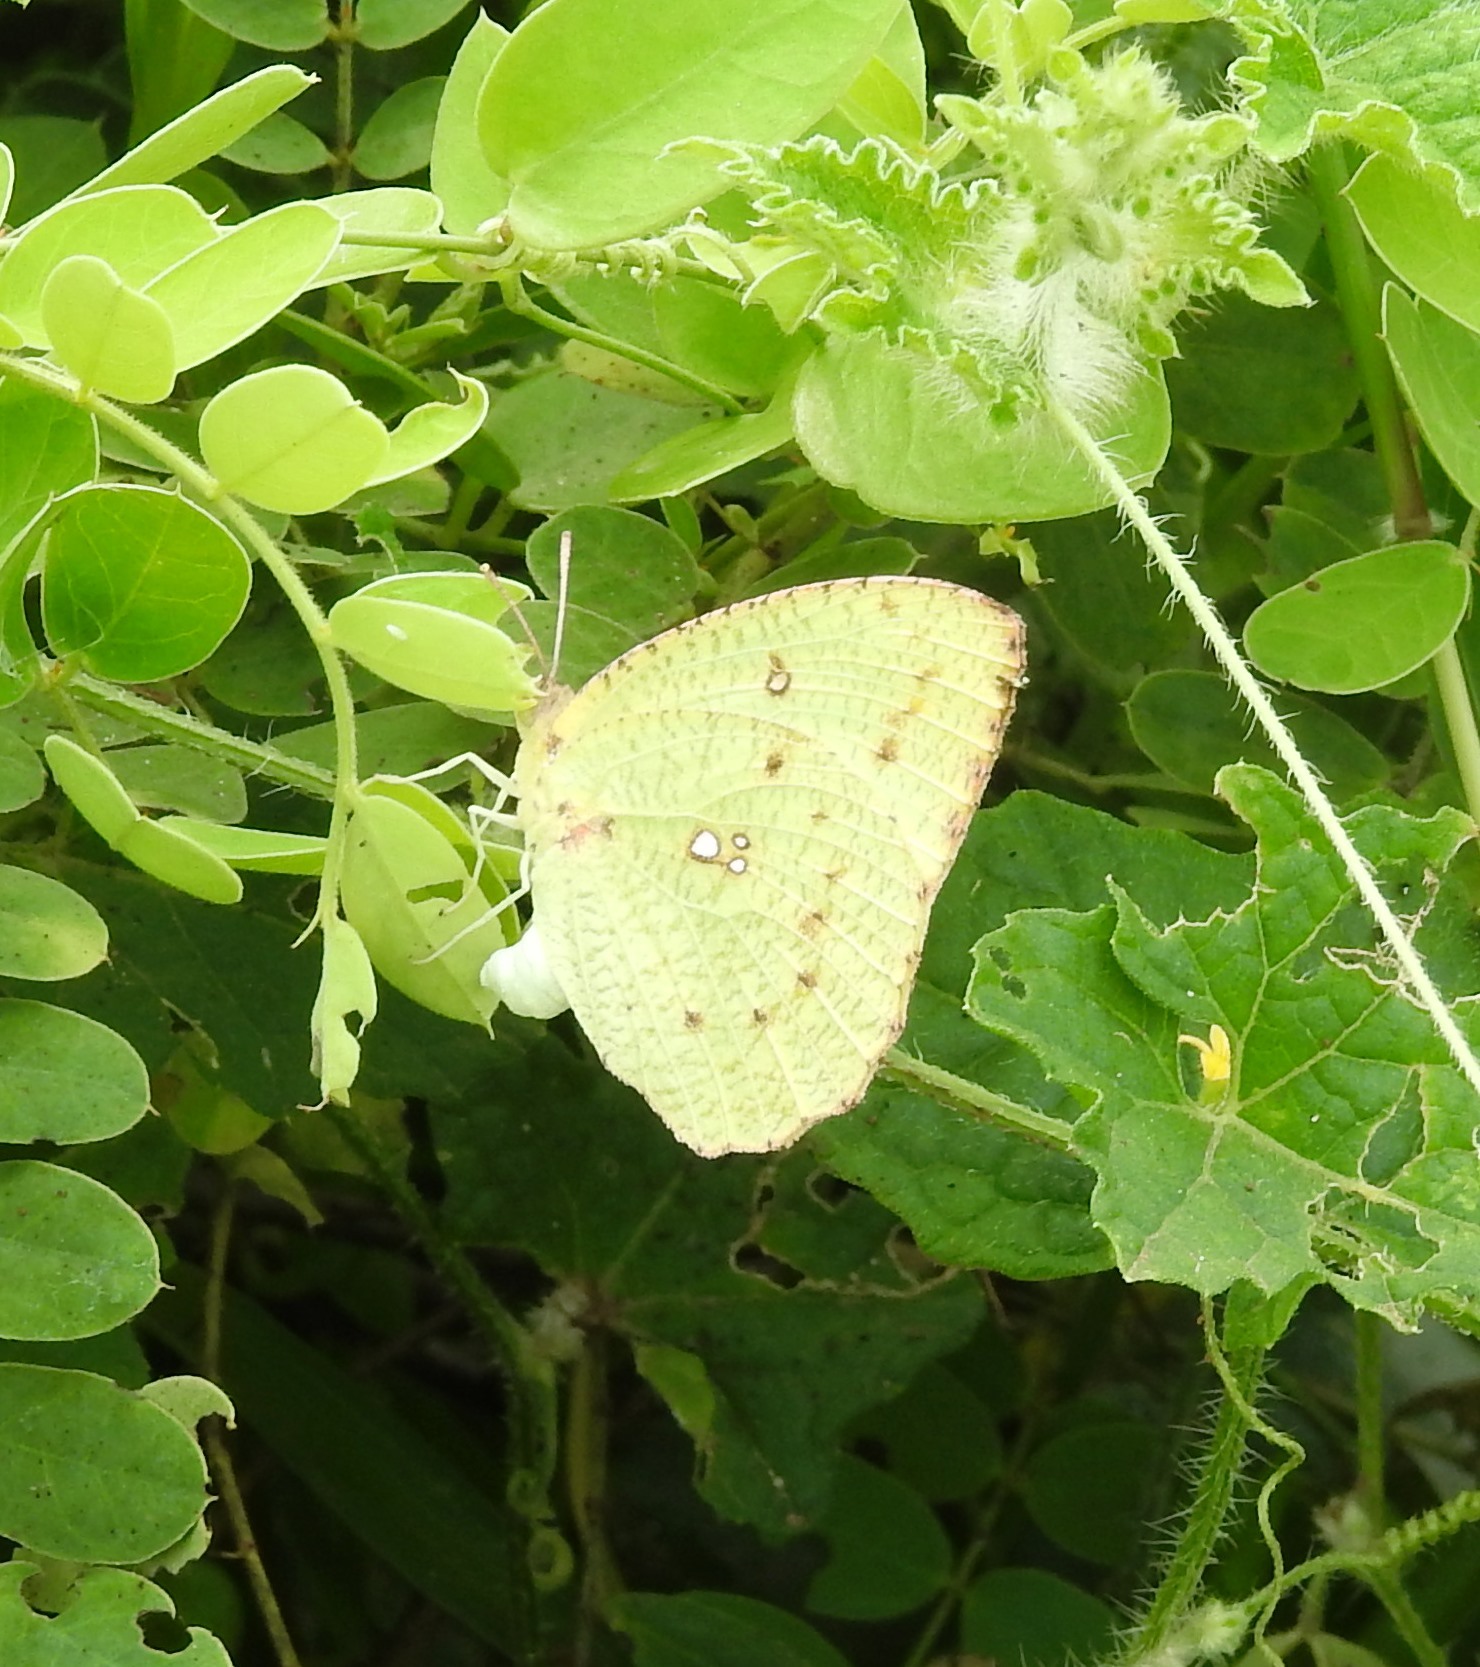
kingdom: Animalia
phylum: Arthropoda
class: Insecta
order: Lepidoptera
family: Pieridae
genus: Catopsilia
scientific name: Catopsilia pyranthe
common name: Mottled emigrant
